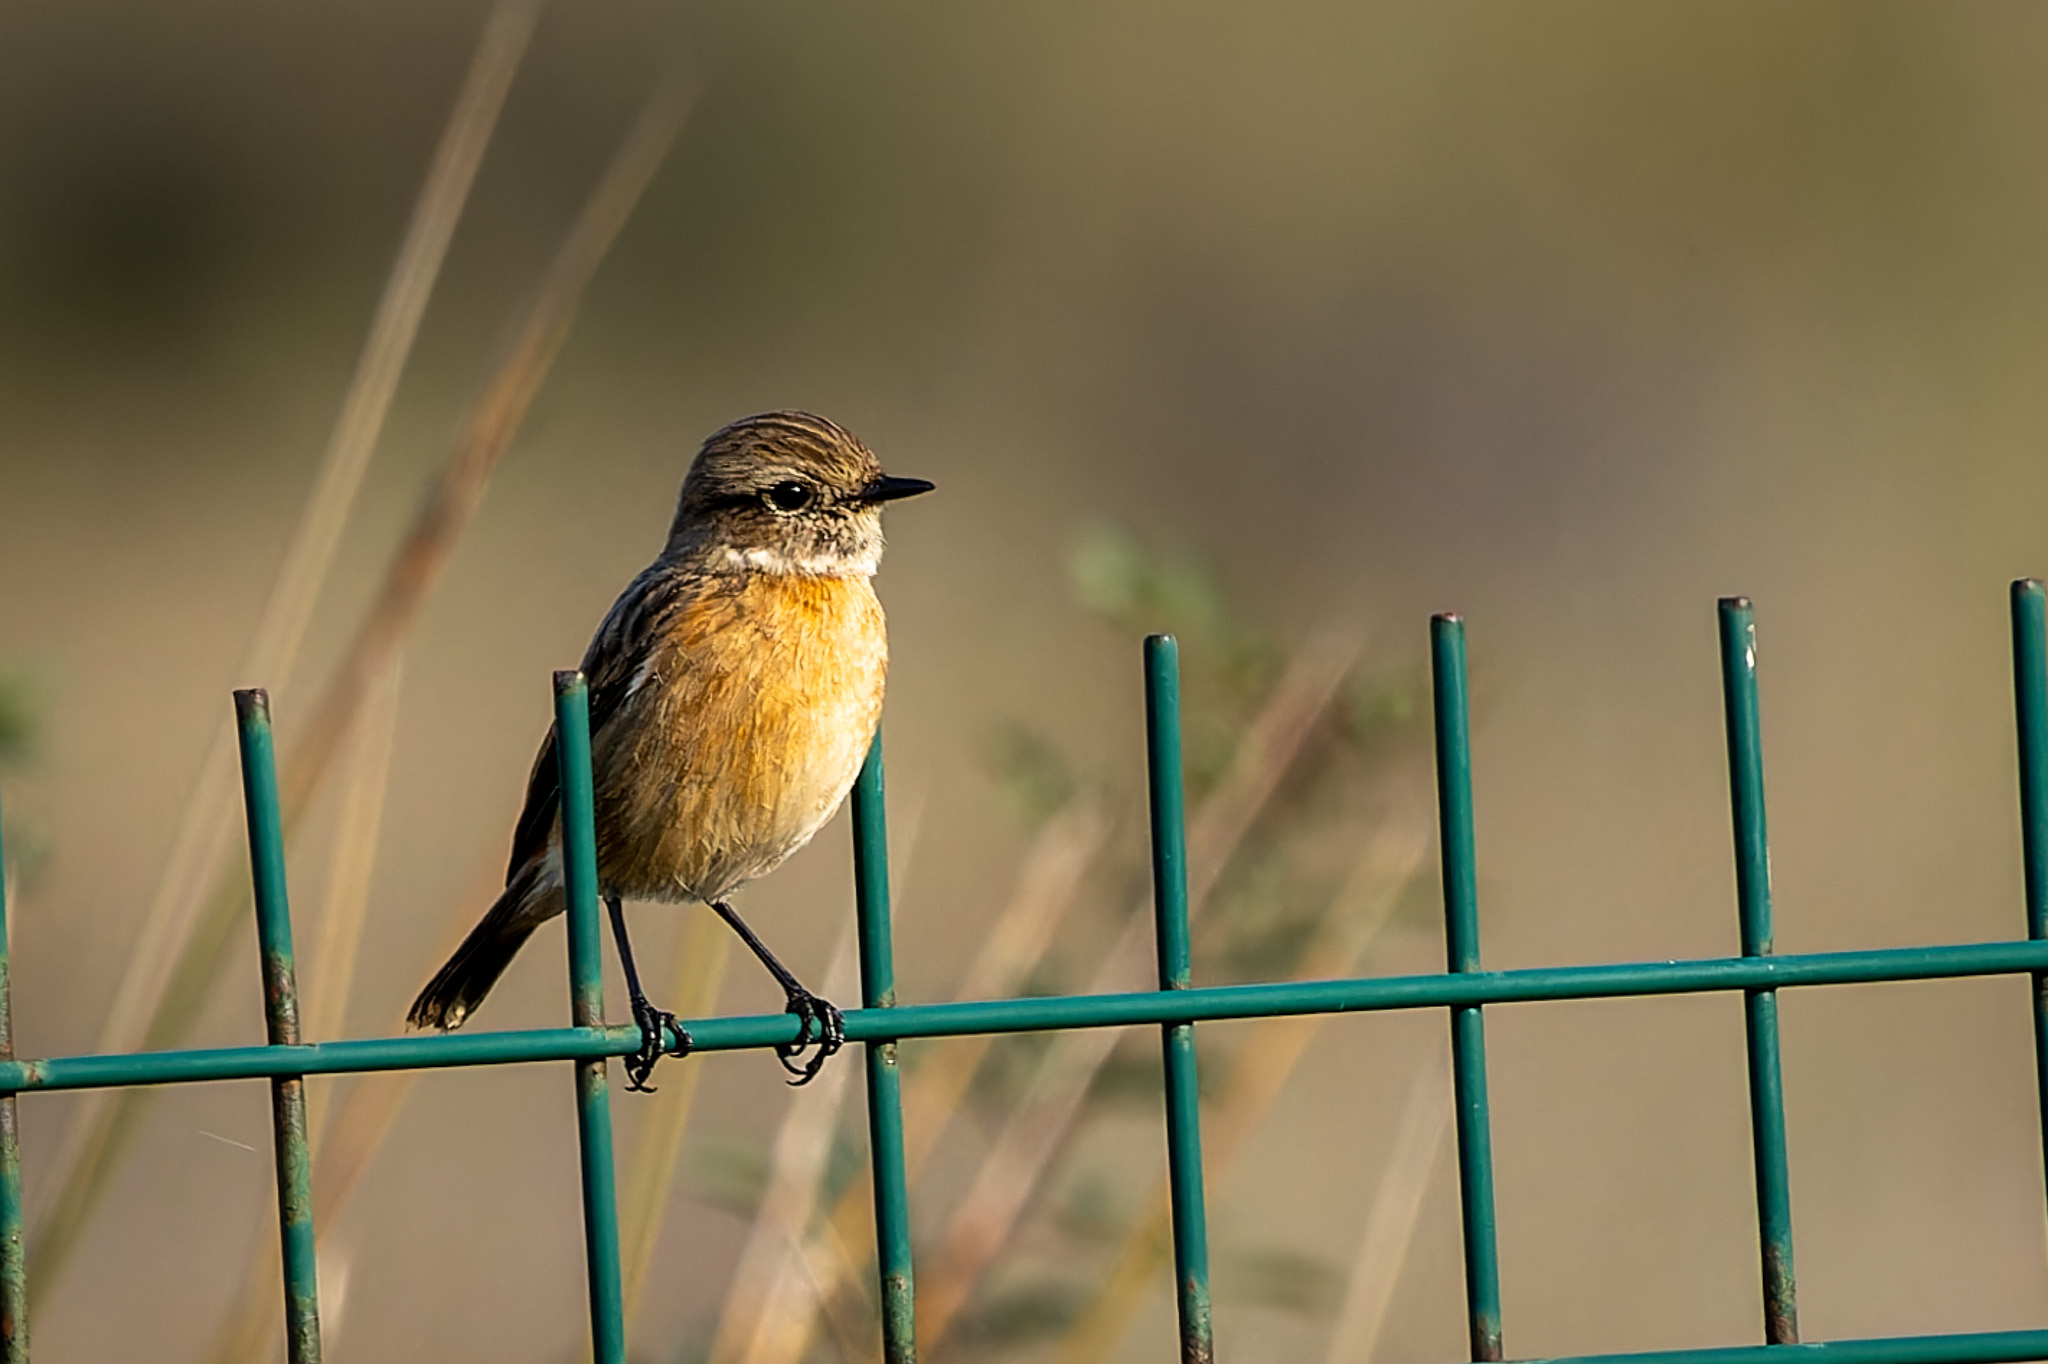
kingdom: Animalia
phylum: Chordata
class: Aves
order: Passeriformes
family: Muscicapidae
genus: Saxicola
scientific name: Saxicola rubicola
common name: European stonechat
